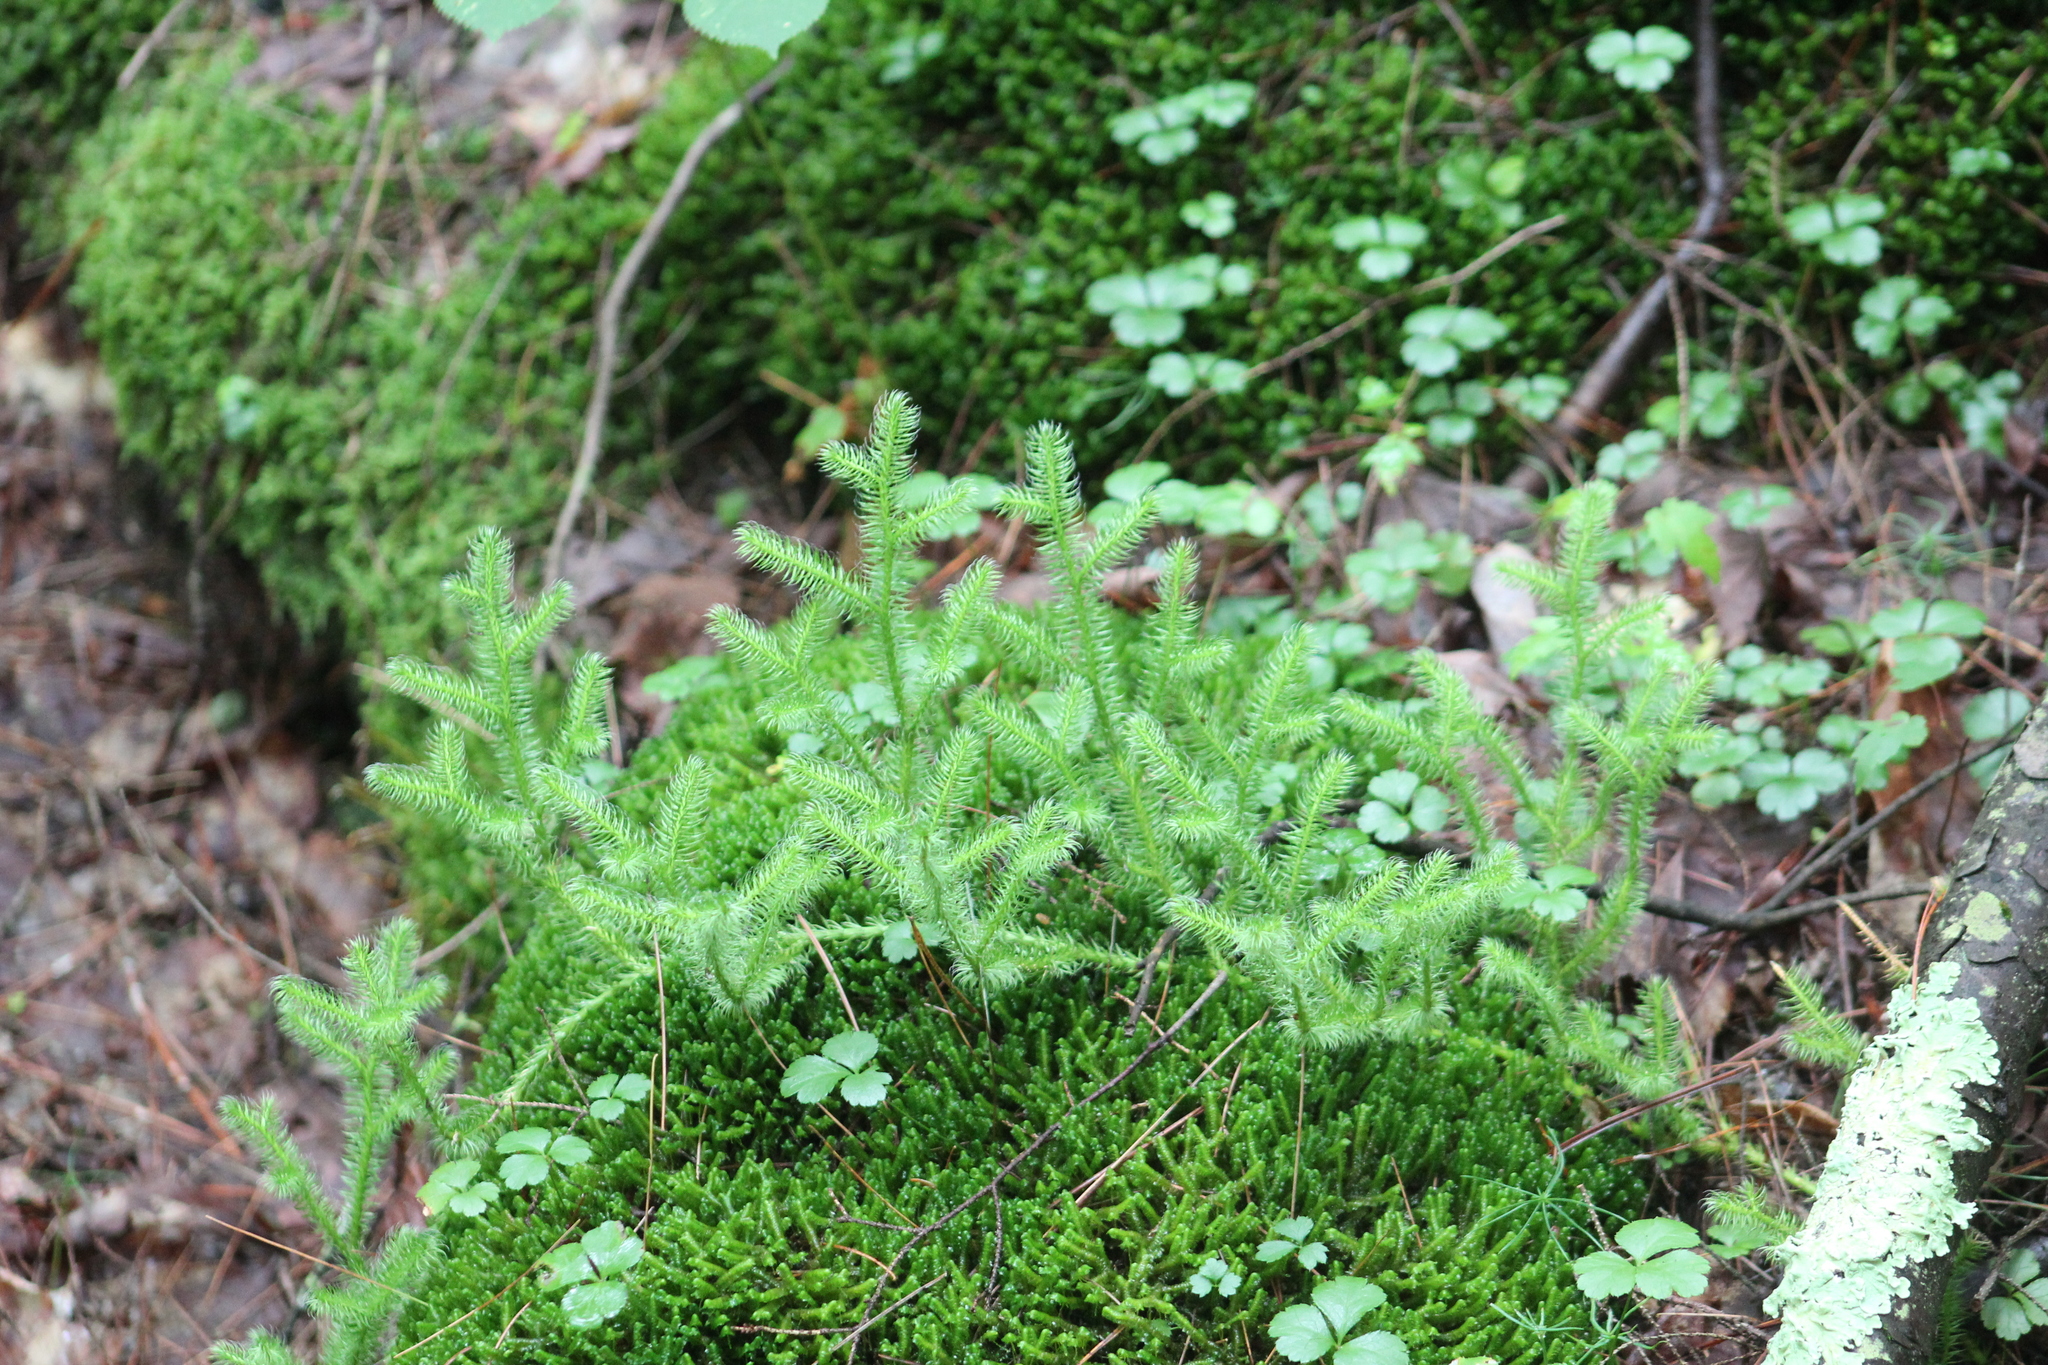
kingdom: Plantae
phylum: Tracheophyta
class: Lycopodiopsida
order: Lycopodiales
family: Lycopodiaceae
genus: Lycopodium
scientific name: Lycopodium clavatum
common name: Stag's-horn clubmoss
